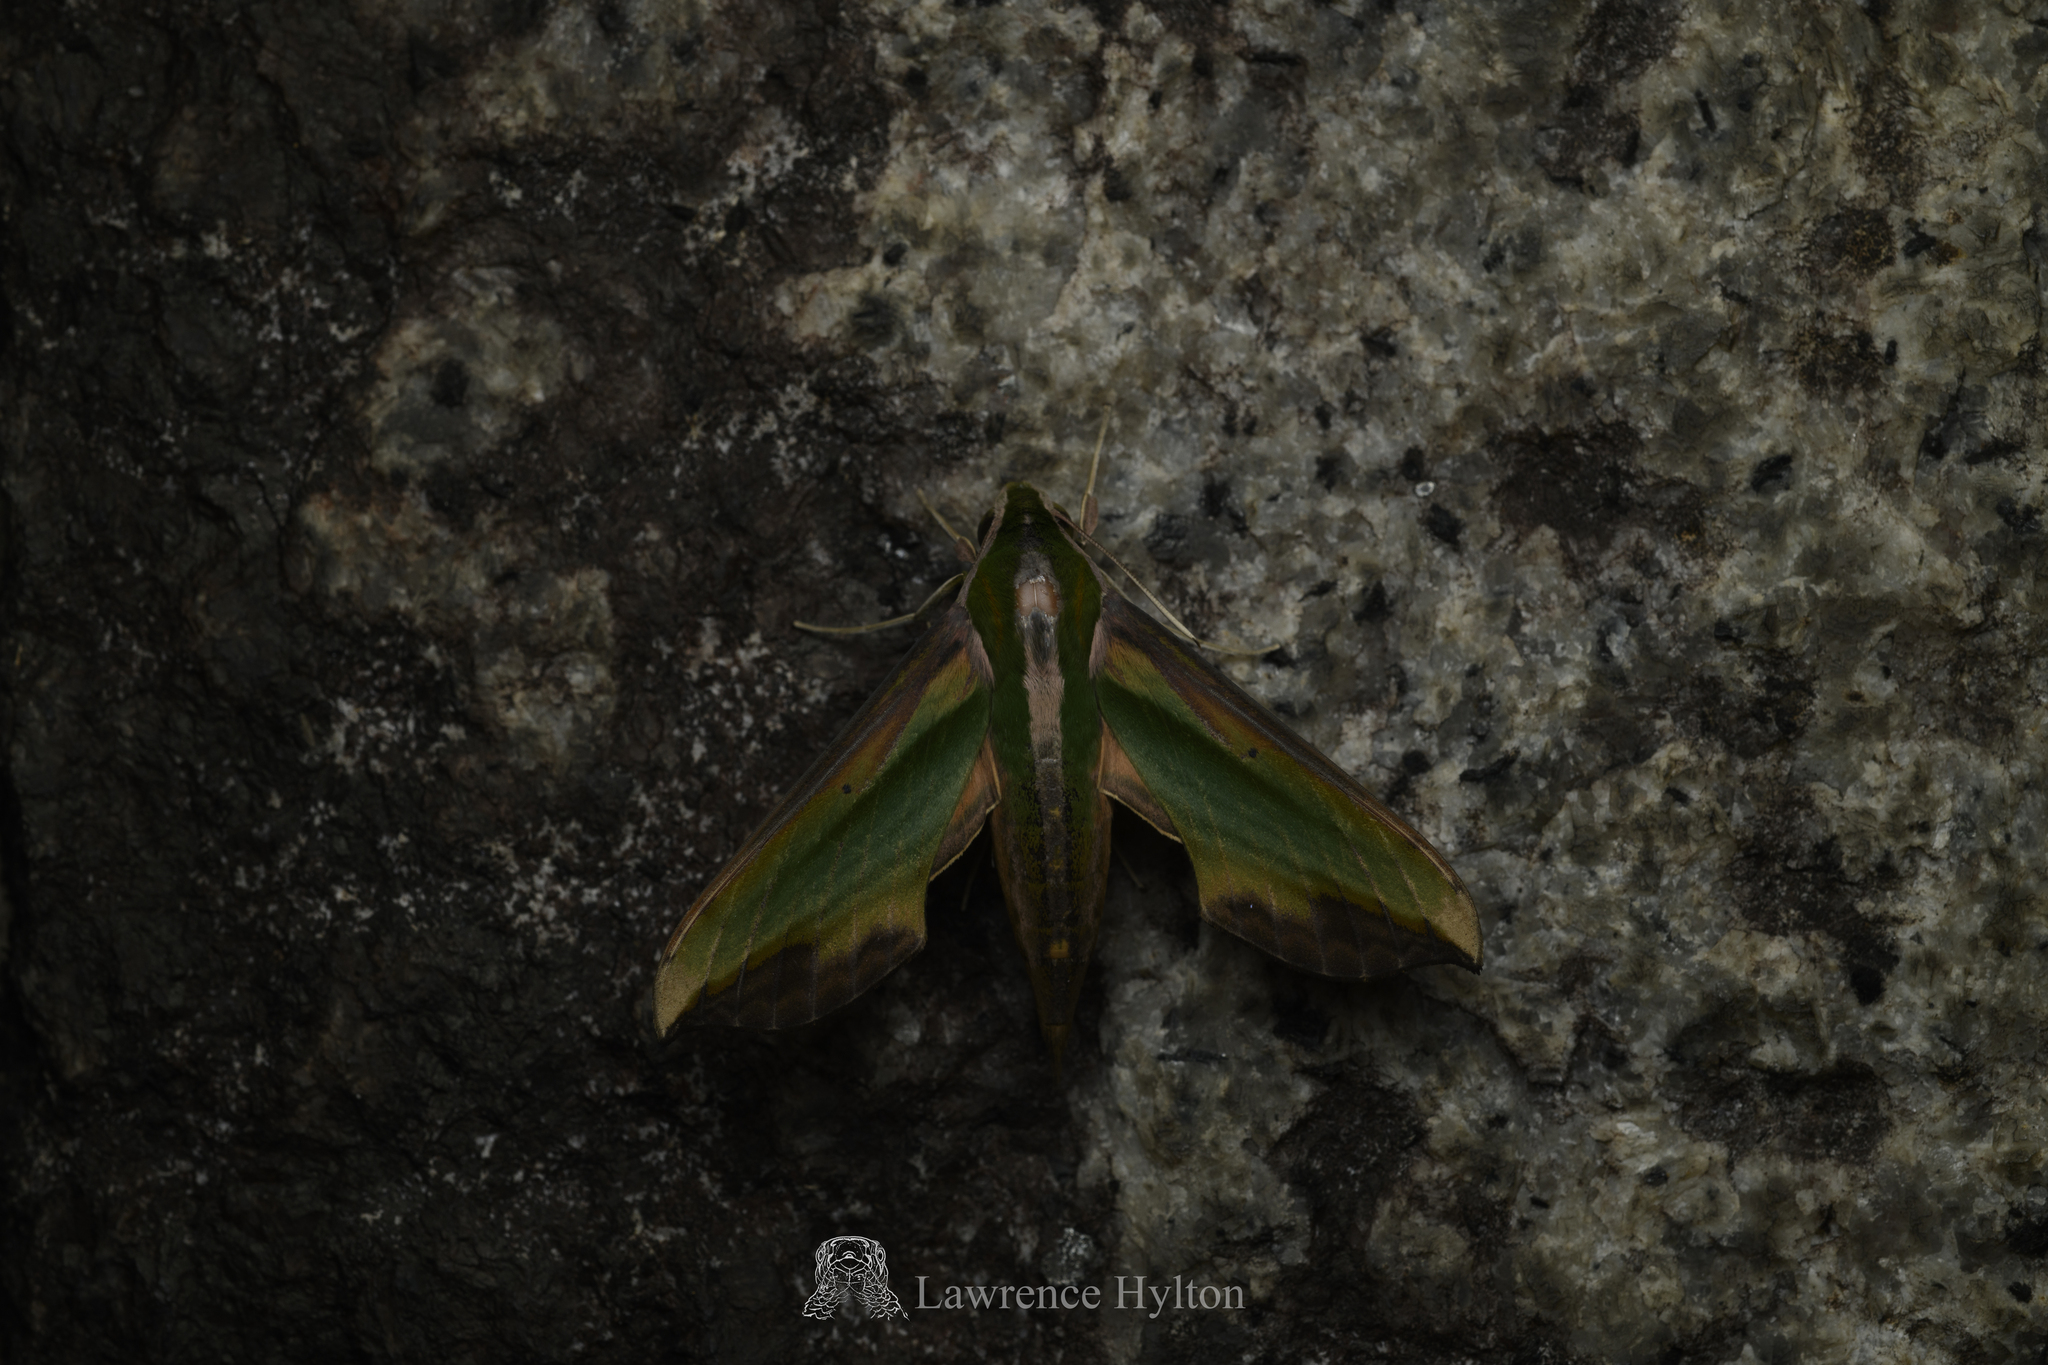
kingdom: Animalia
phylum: Arthropoda
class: Insecta
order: Lepidoptera
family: Sphingidae
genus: Pergesa
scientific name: Pergesa acteus
